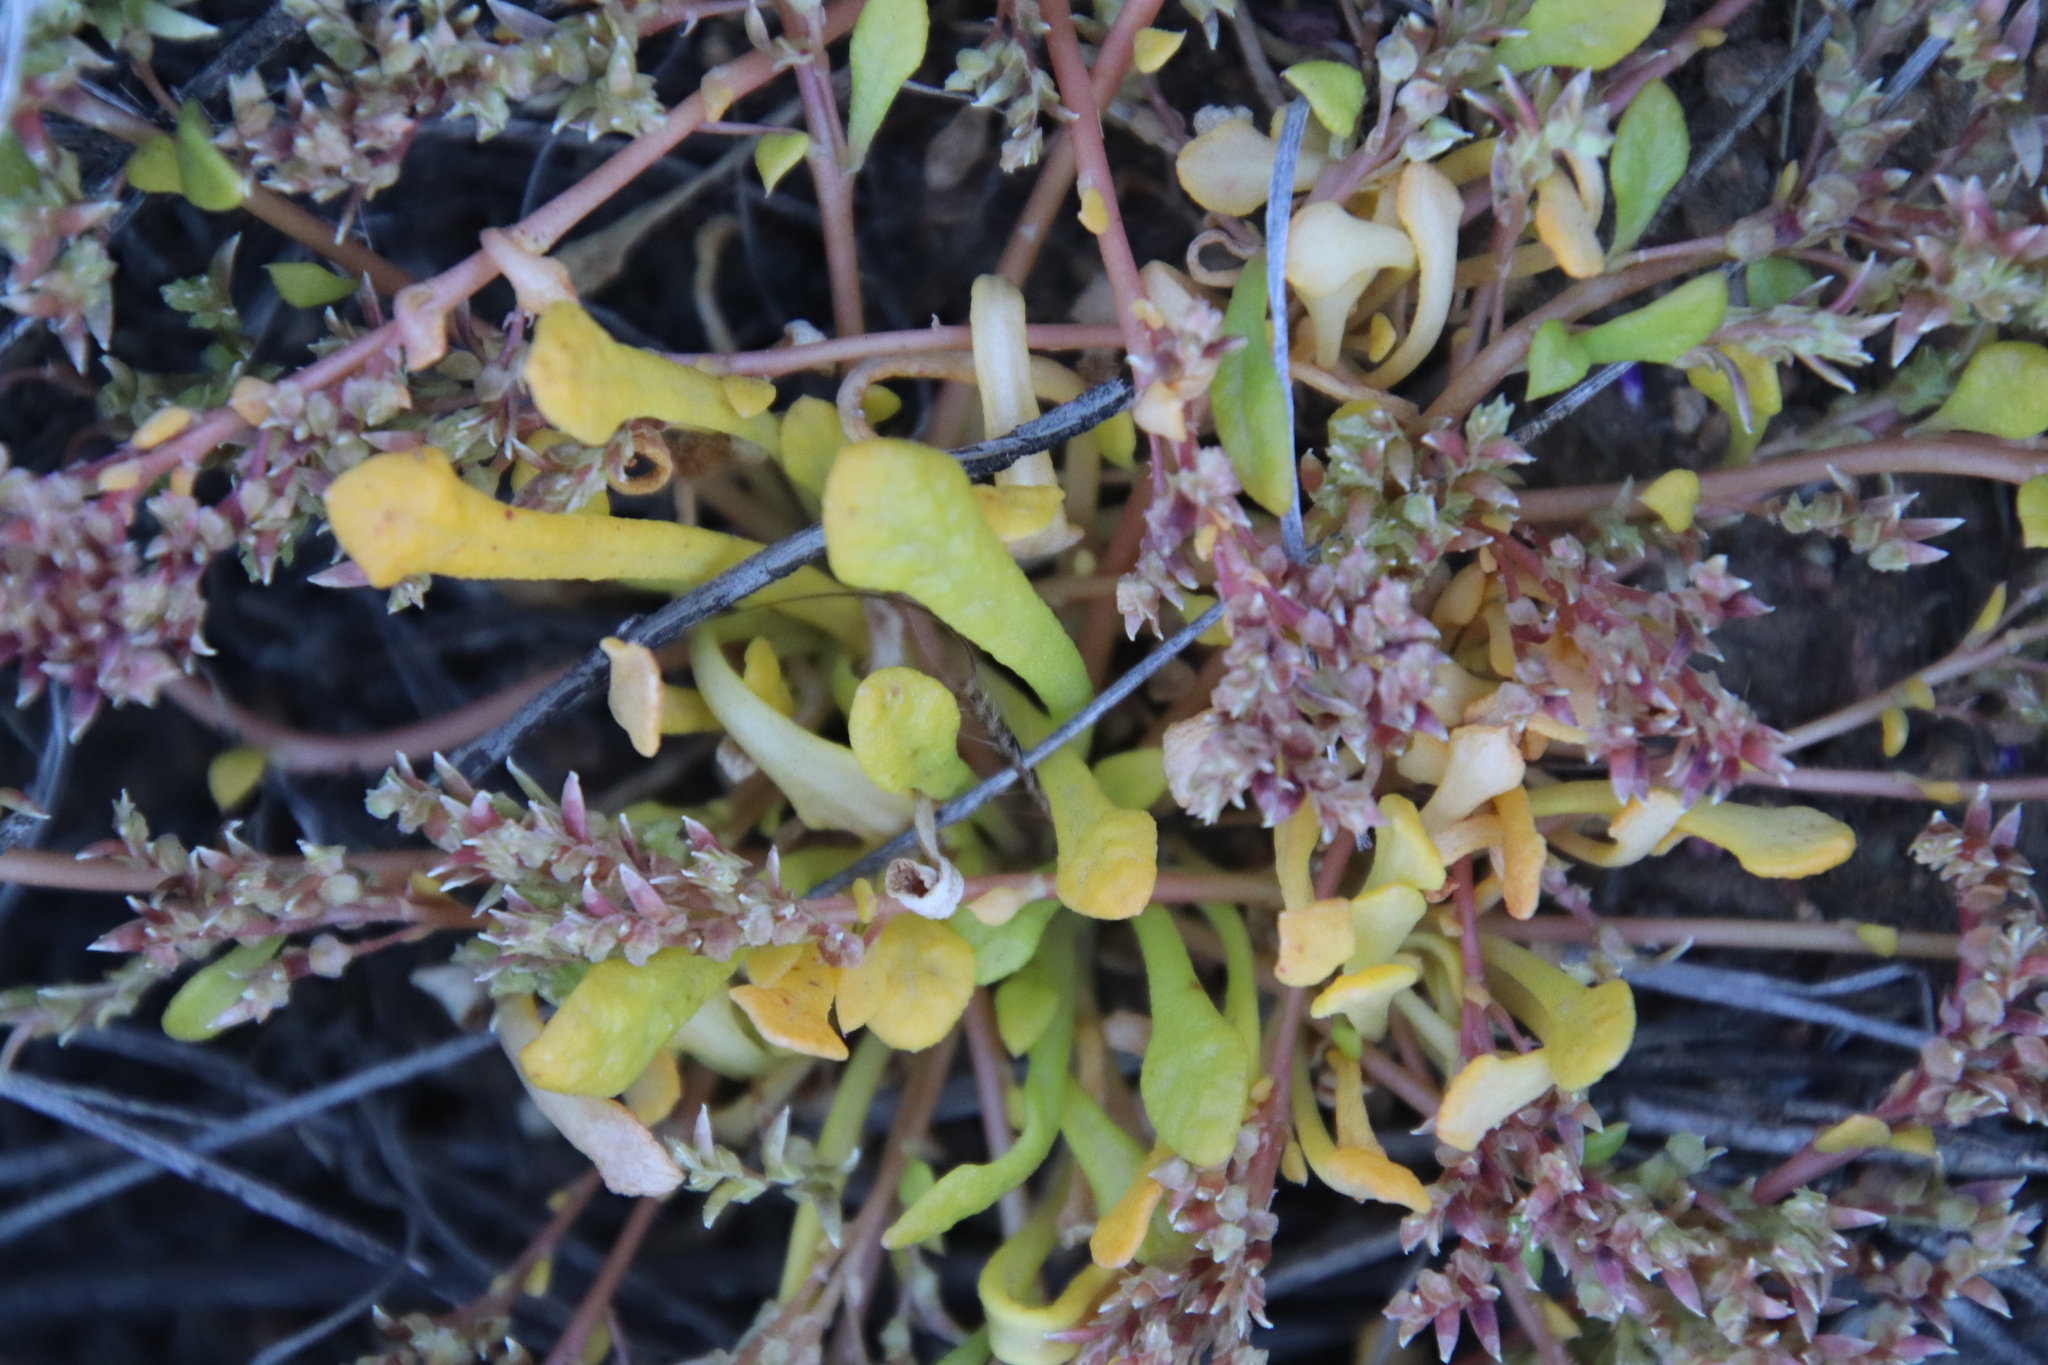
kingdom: Plantae
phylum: Tracheophyta
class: Magnoliopsida
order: Caryophyllales
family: Montiaceae
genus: Calyptridium
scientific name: Calyptridium monandrum
